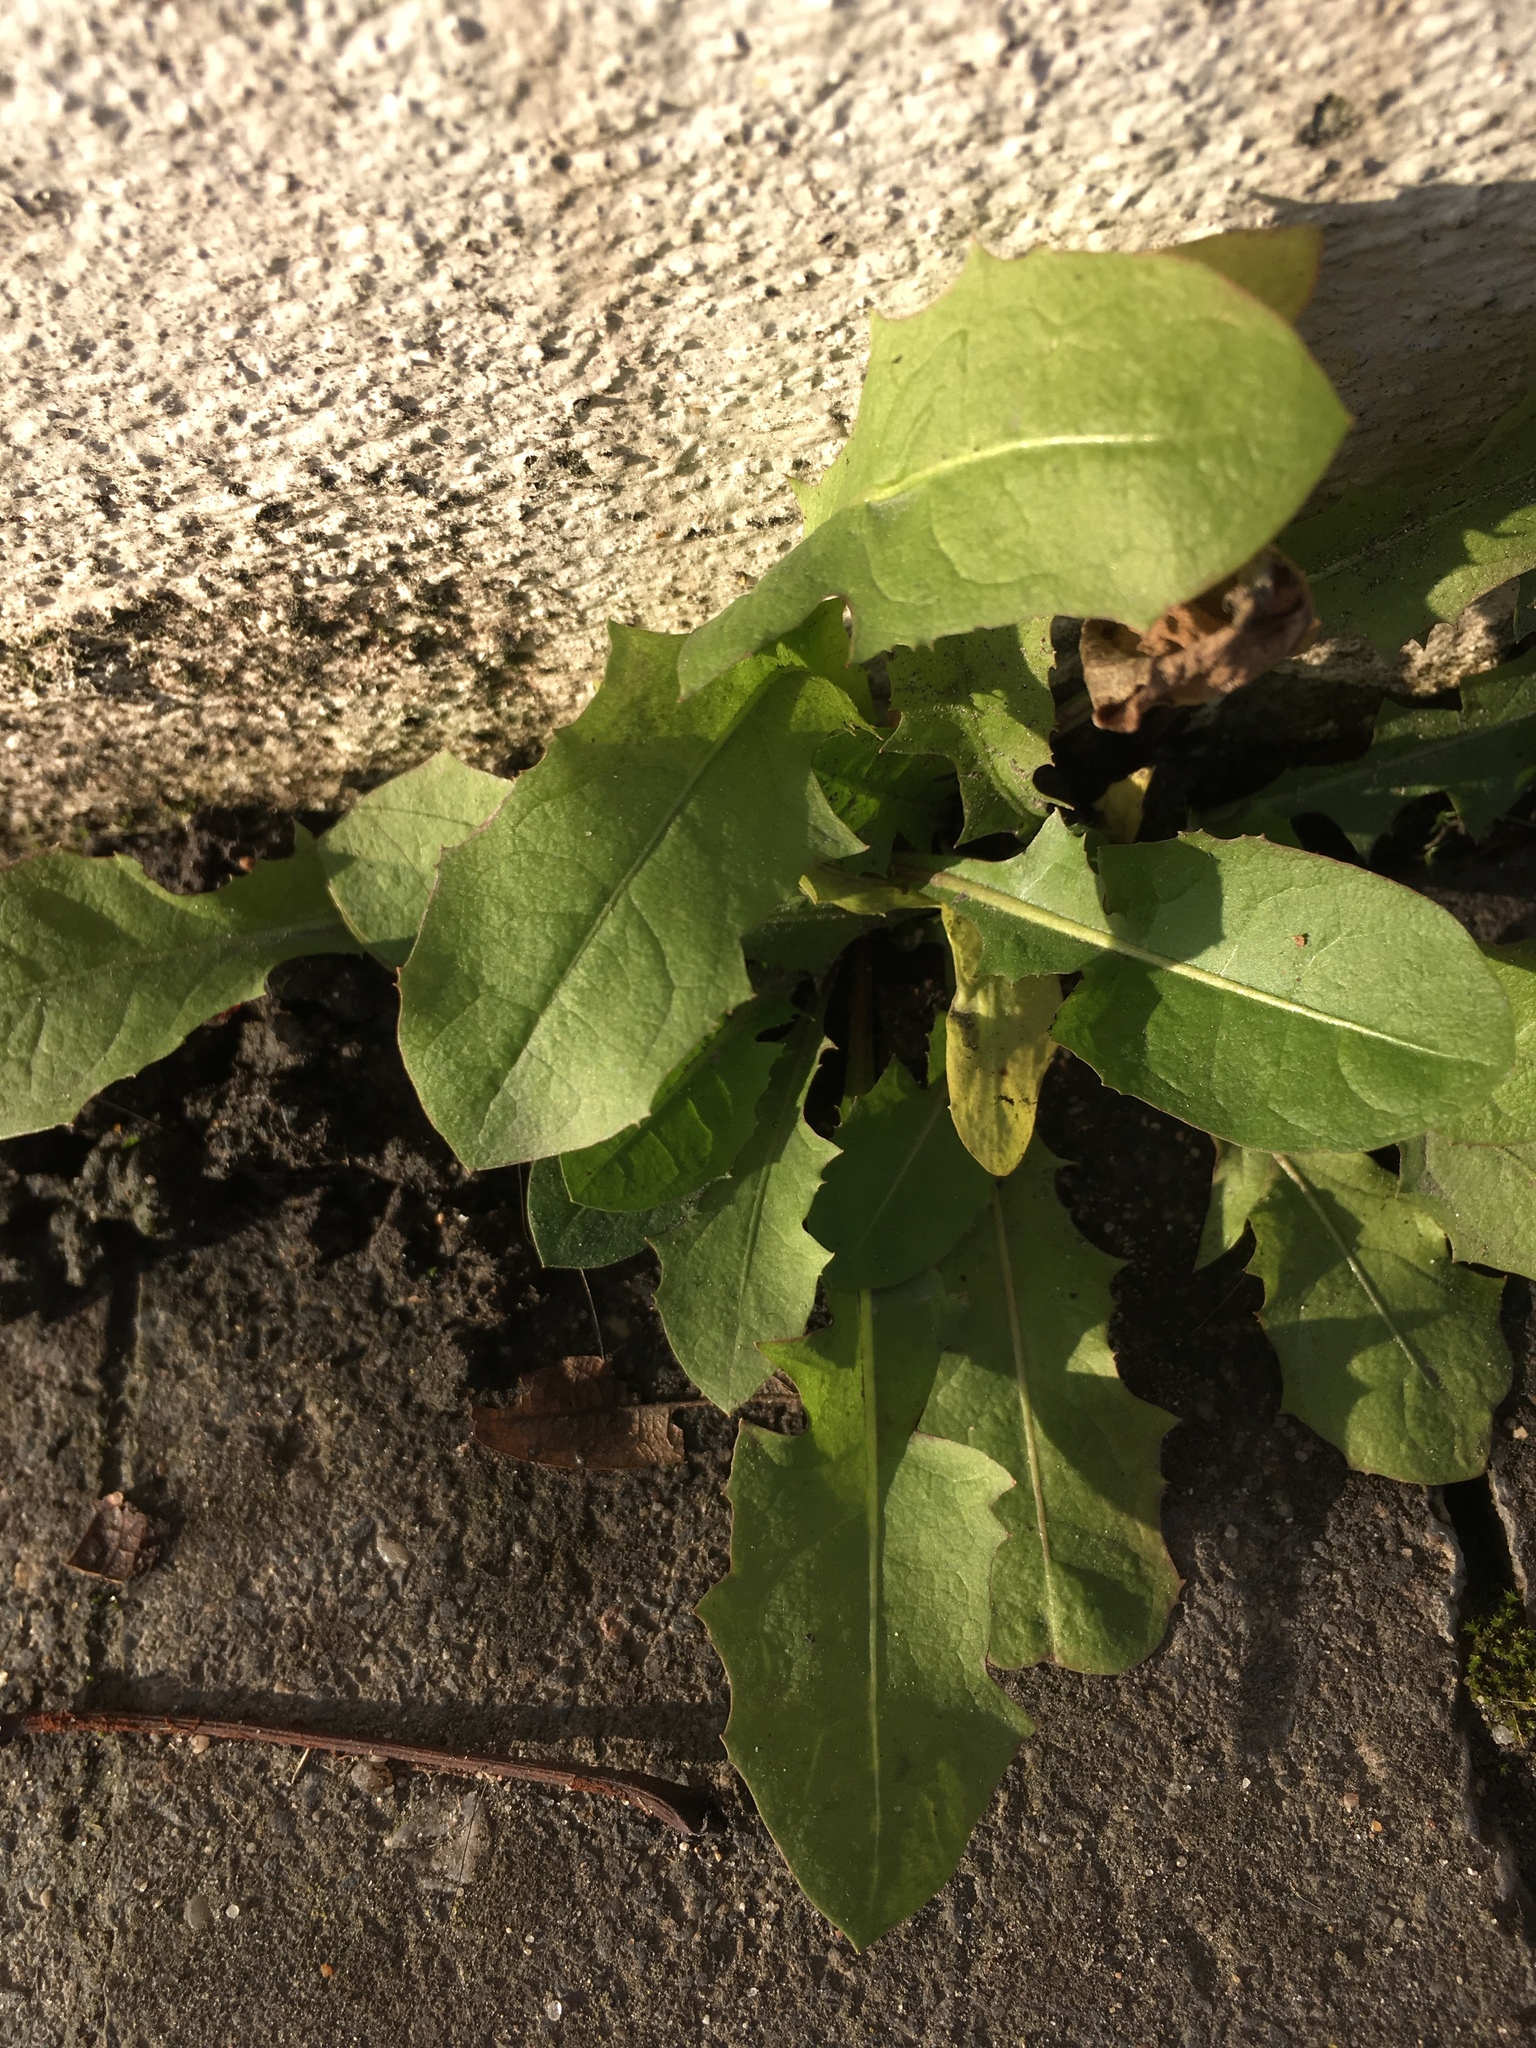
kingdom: Plantae
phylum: Tracheophyta
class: Magnoliopsida
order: Asterales
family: Asteraceae
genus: Taraxacum
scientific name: Taraxacum officinale
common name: Common dandelion
